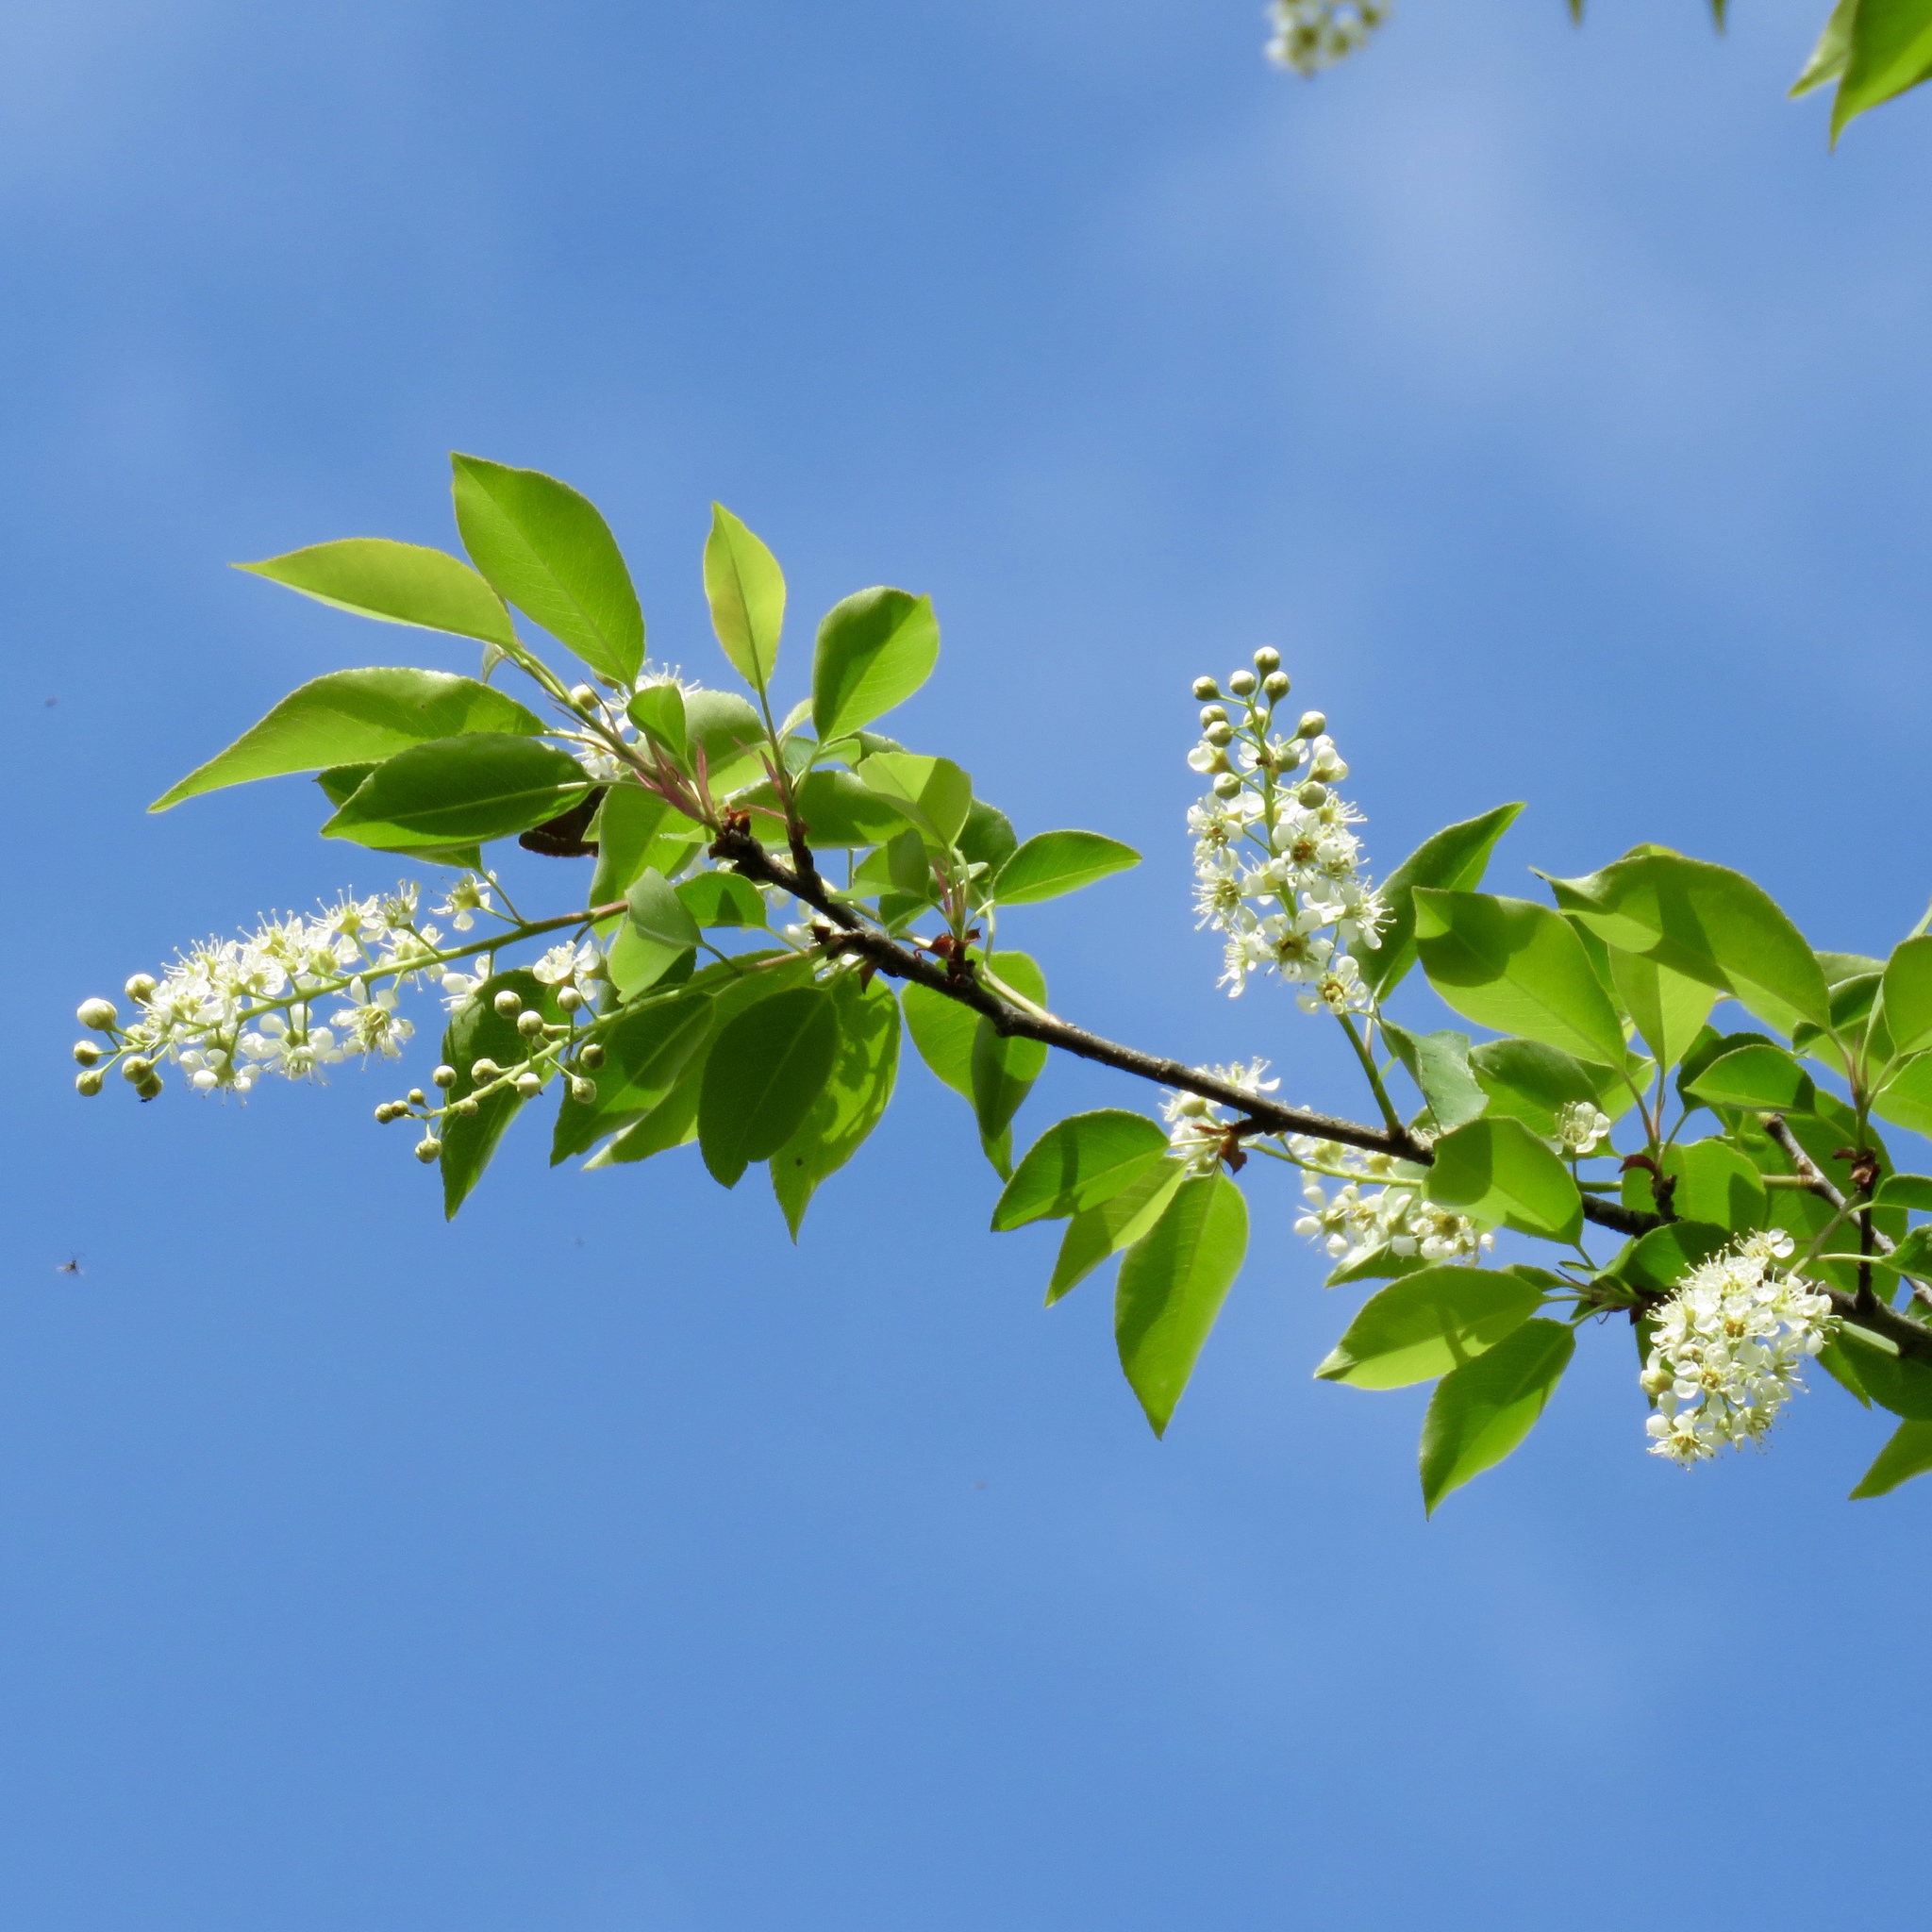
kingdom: Plantae
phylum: Tracheophyta
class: Magnoliopsida
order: Rosales
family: Rosaceae
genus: Prunus
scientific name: Prunus serotina
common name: Black cherry
